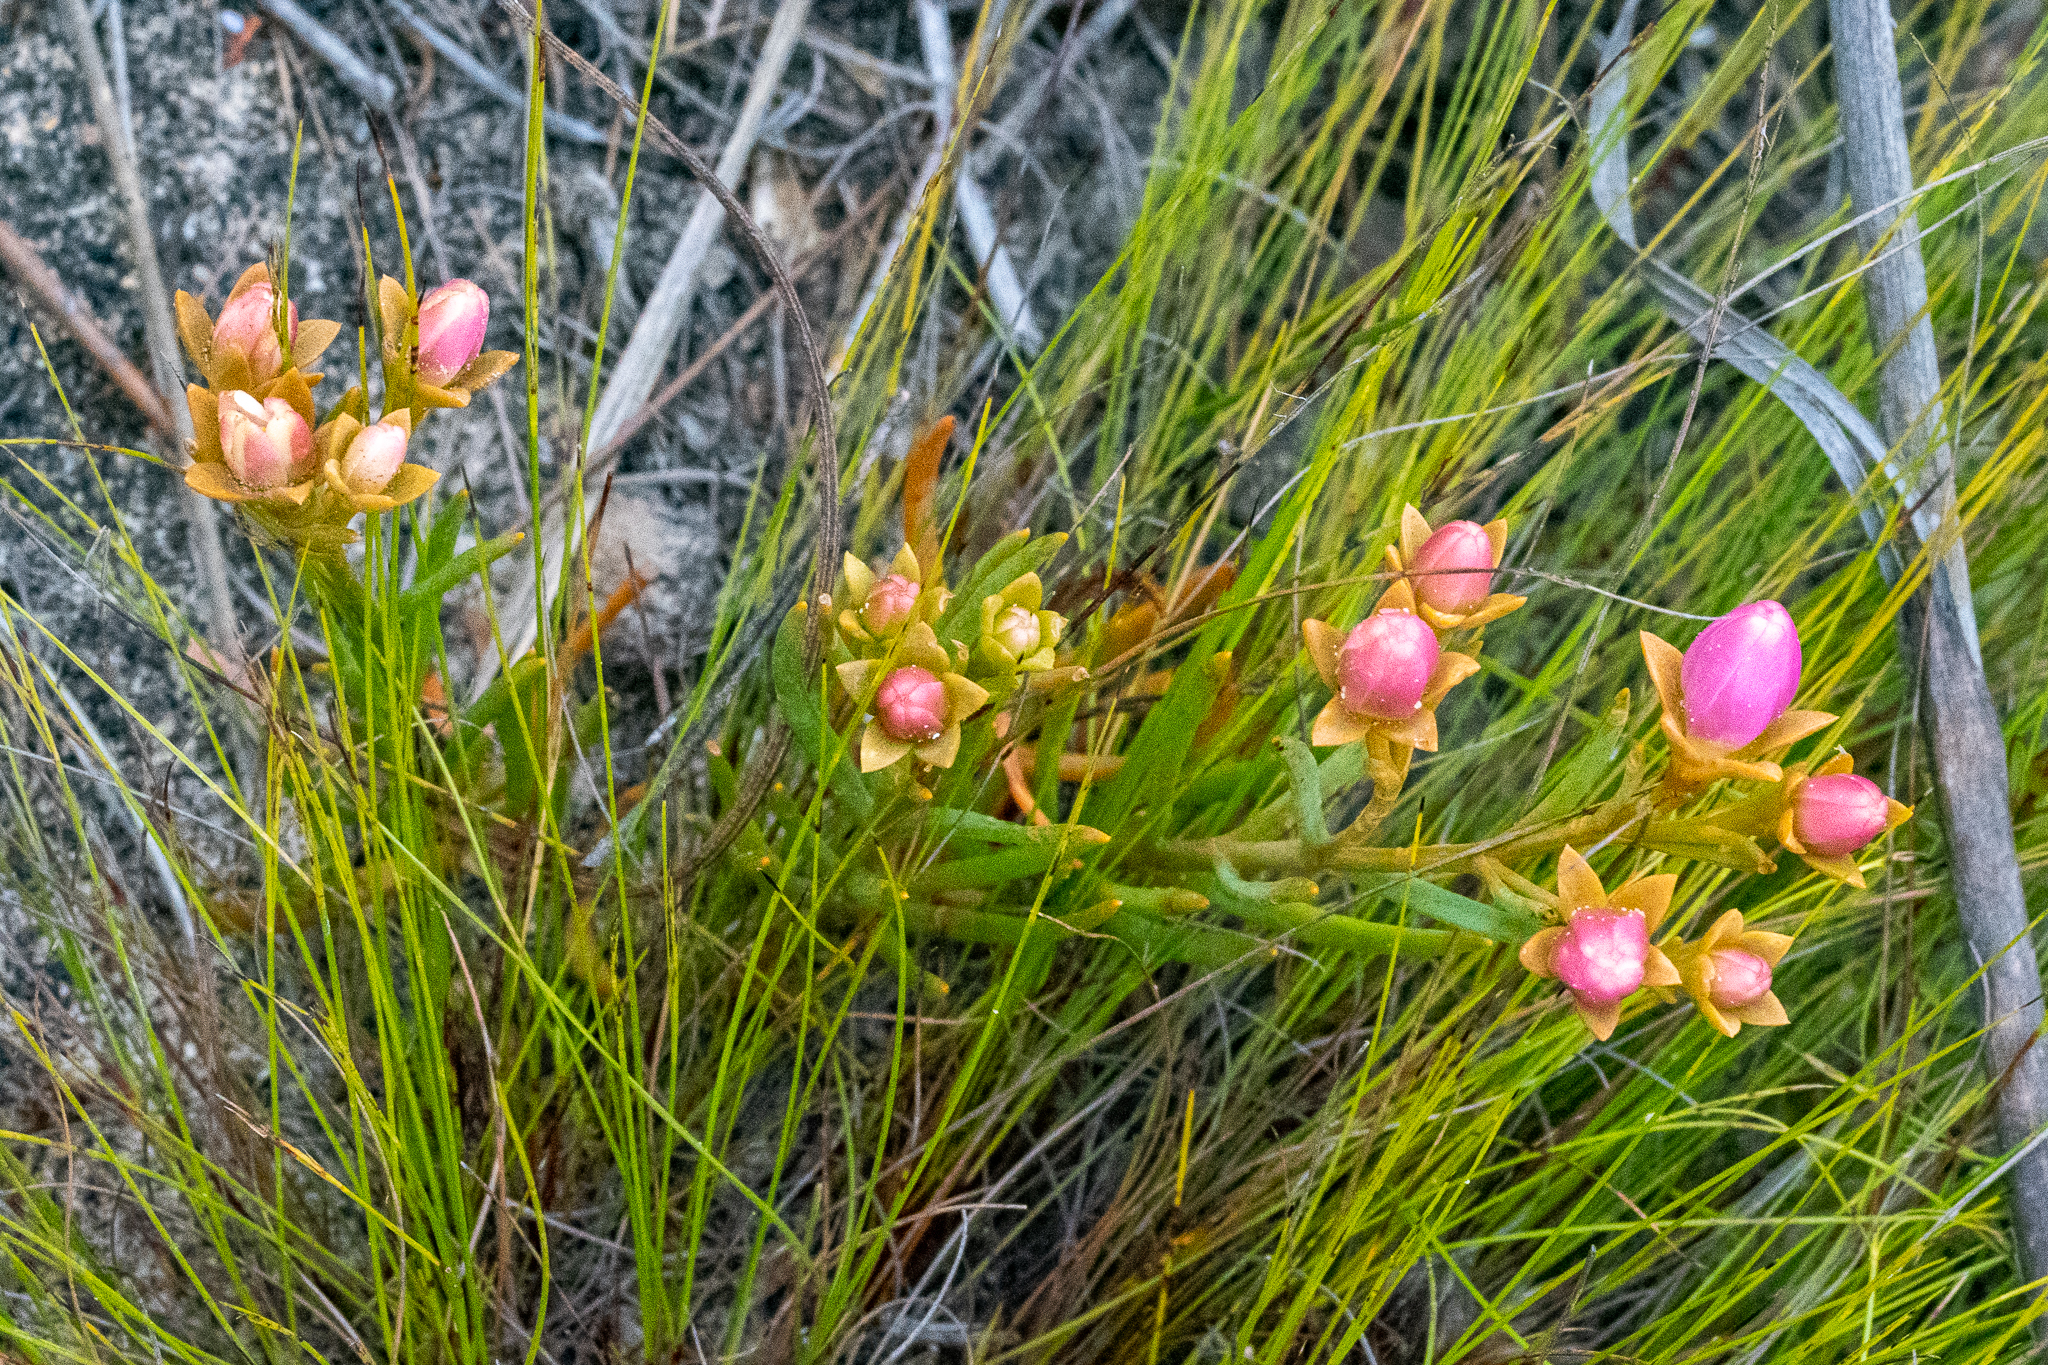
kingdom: Plantae
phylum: Tracheophyta
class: Magnoliopsida
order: Gentianales
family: Gentianaceae
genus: Chironia
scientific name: Chironia linoides
